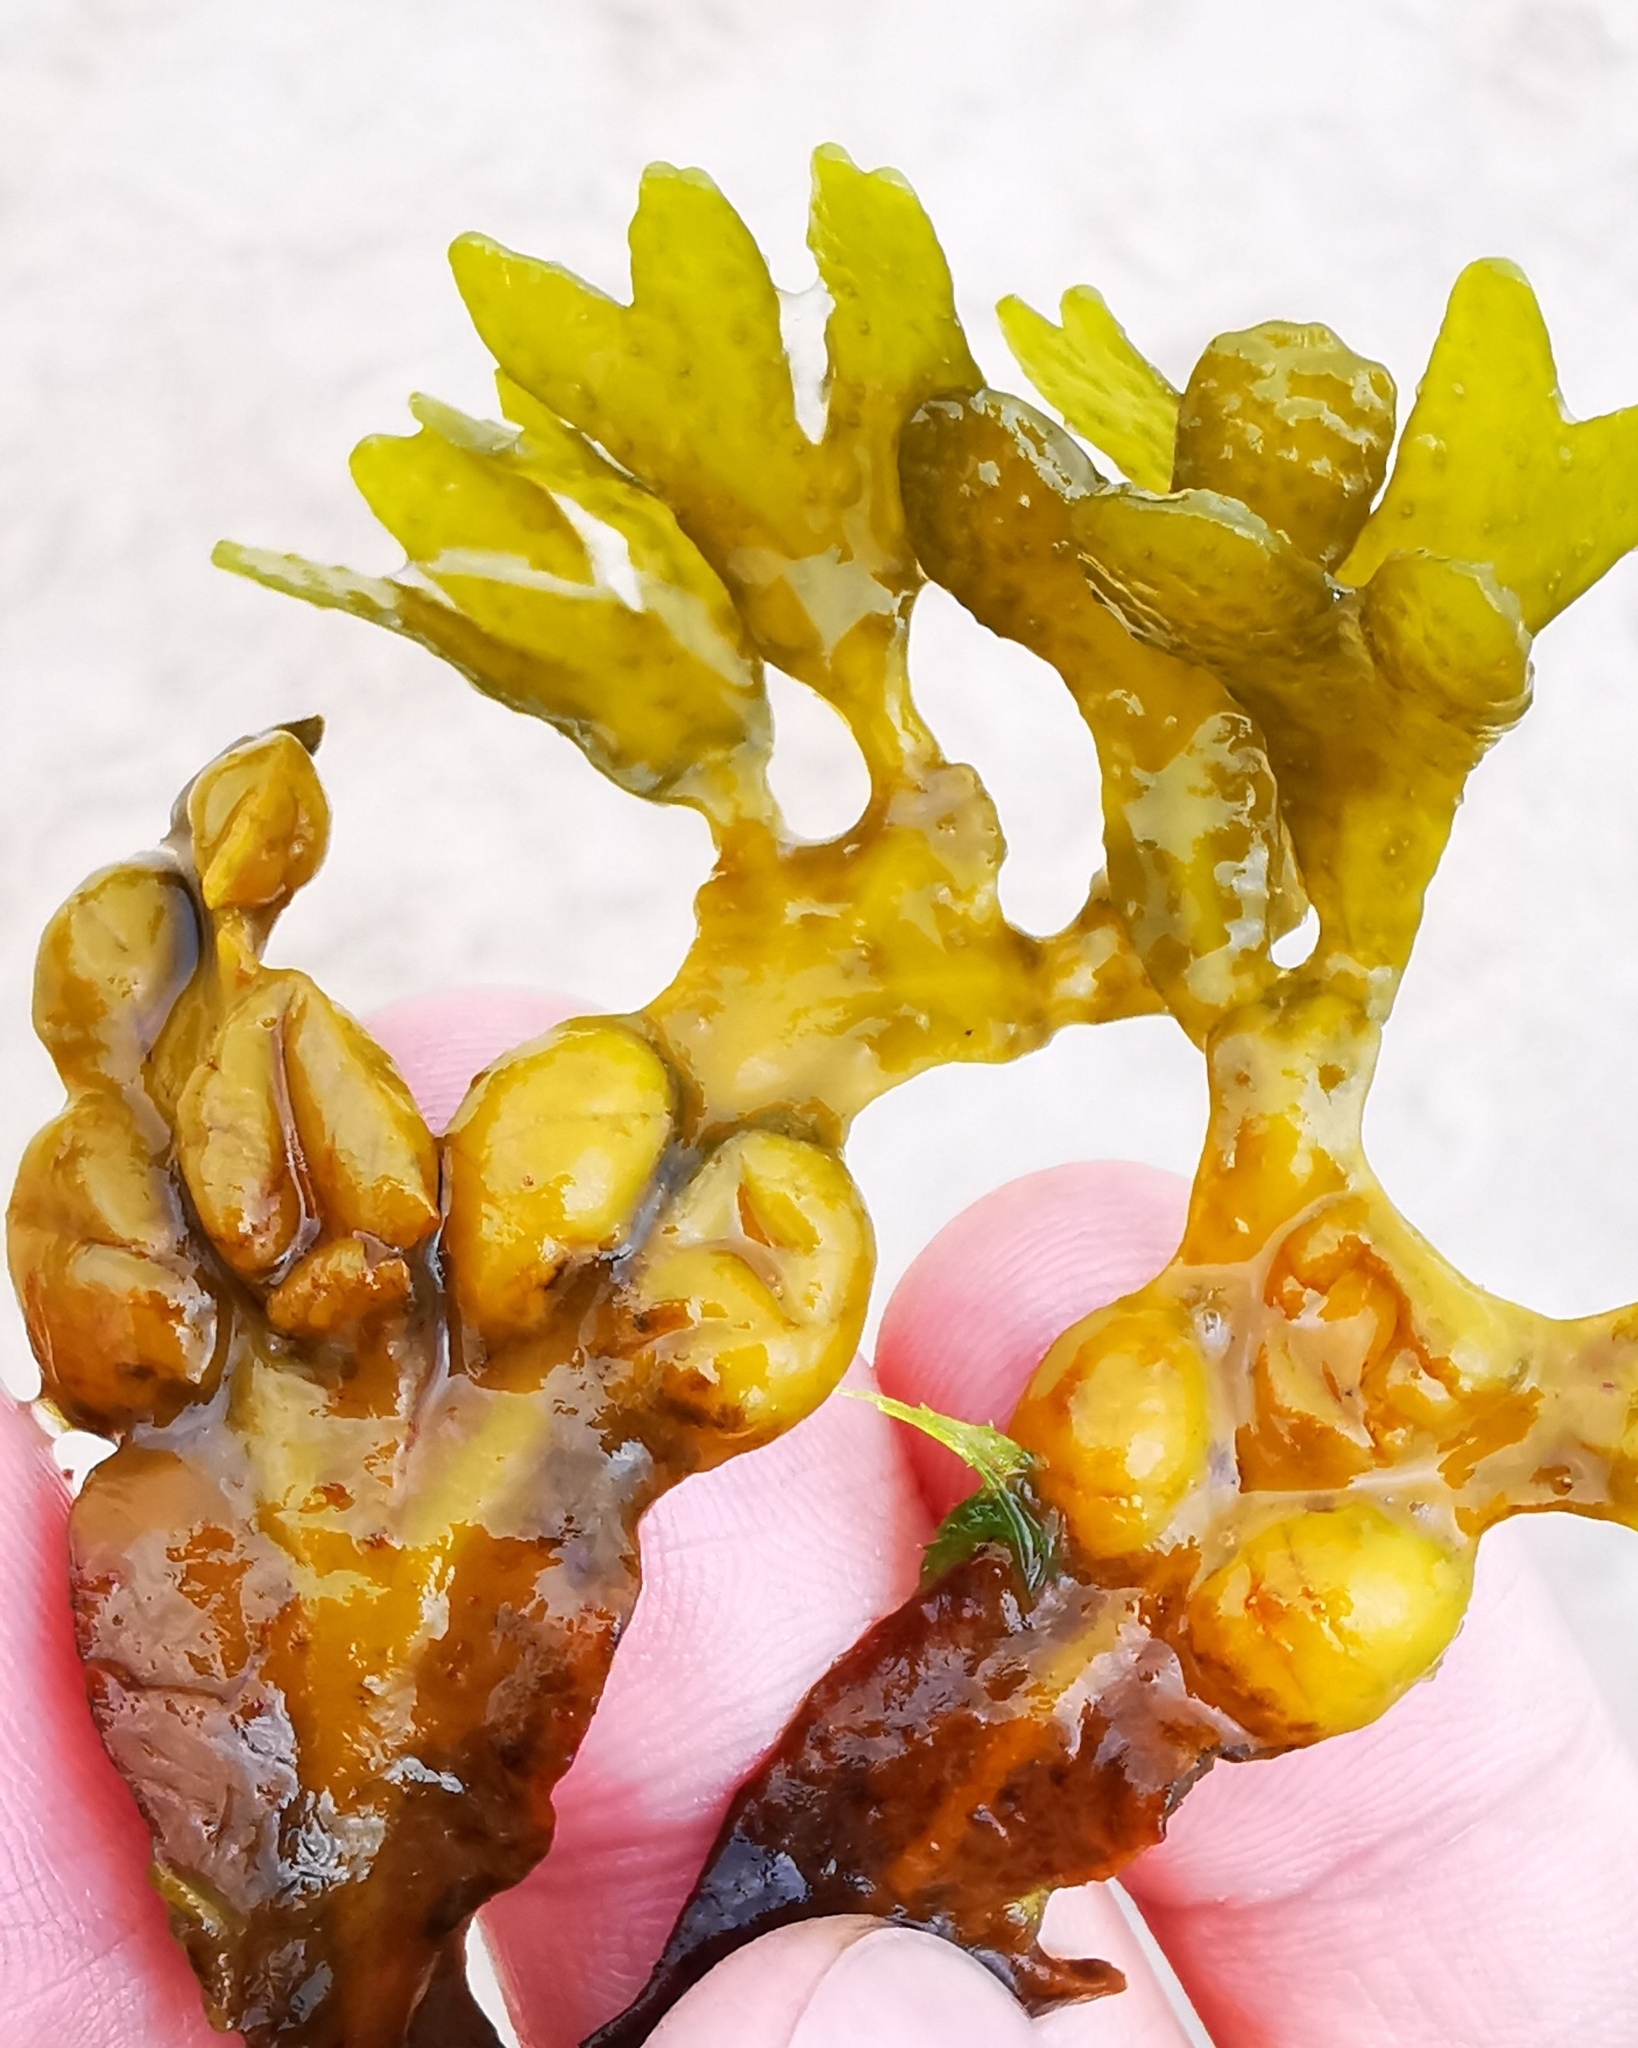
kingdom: Chromista
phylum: Ochrophyta
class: Phaeophyceae
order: Fucales
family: Fucaceae
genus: Fucus
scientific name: Fucus vesiculosus
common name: Bladder wrack
